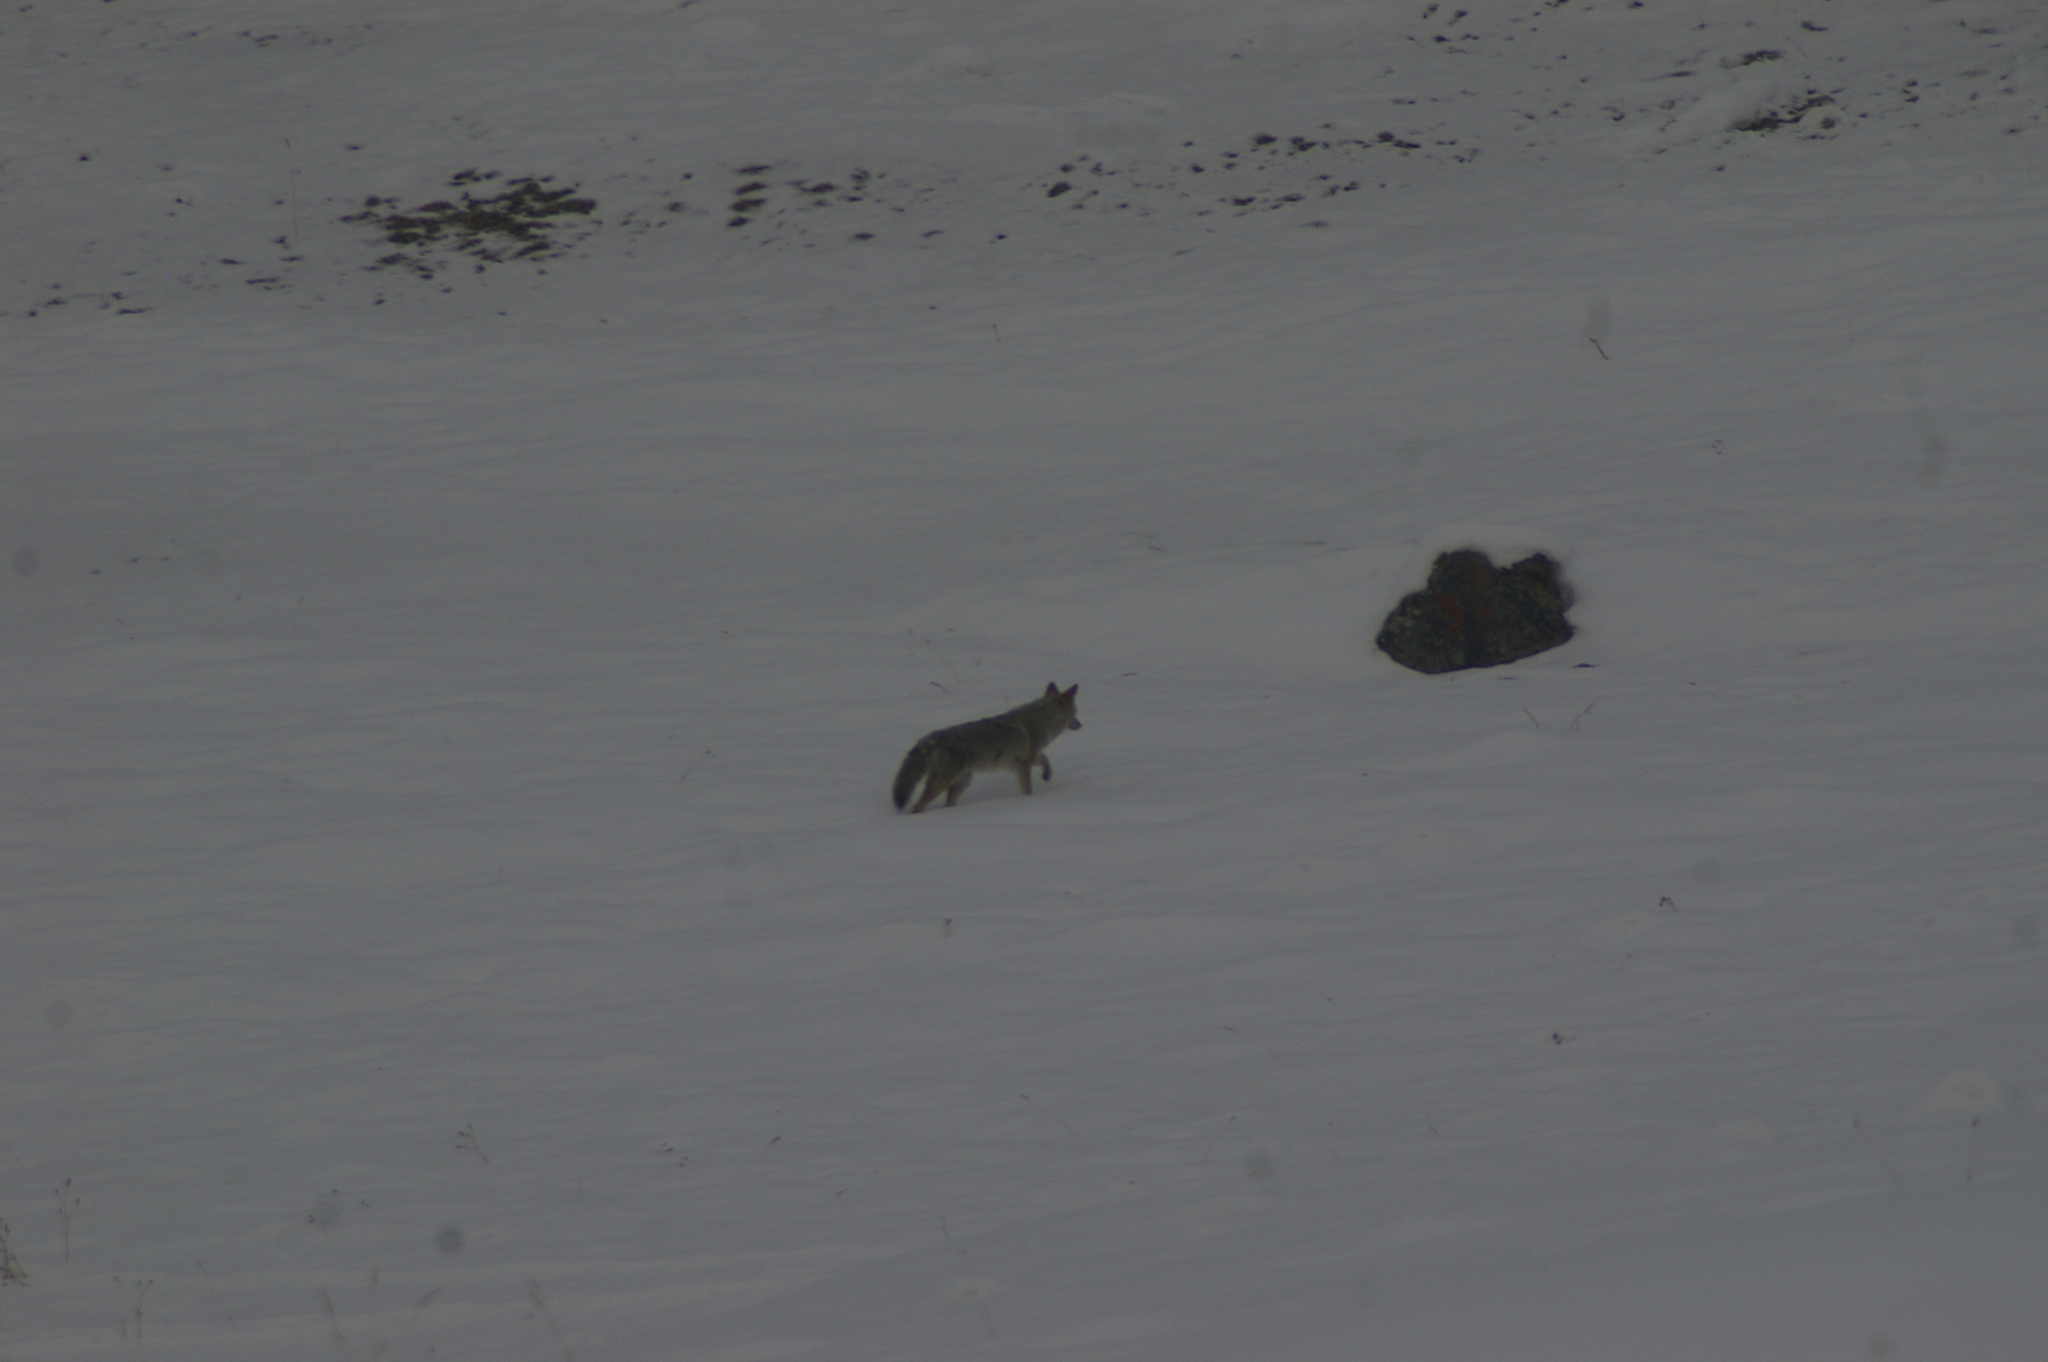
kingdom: Animalia
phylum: Chordata
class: Mammalia
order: Carnivora
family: Canidae
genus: Canis
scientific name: Canis latrans
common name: Coyote
